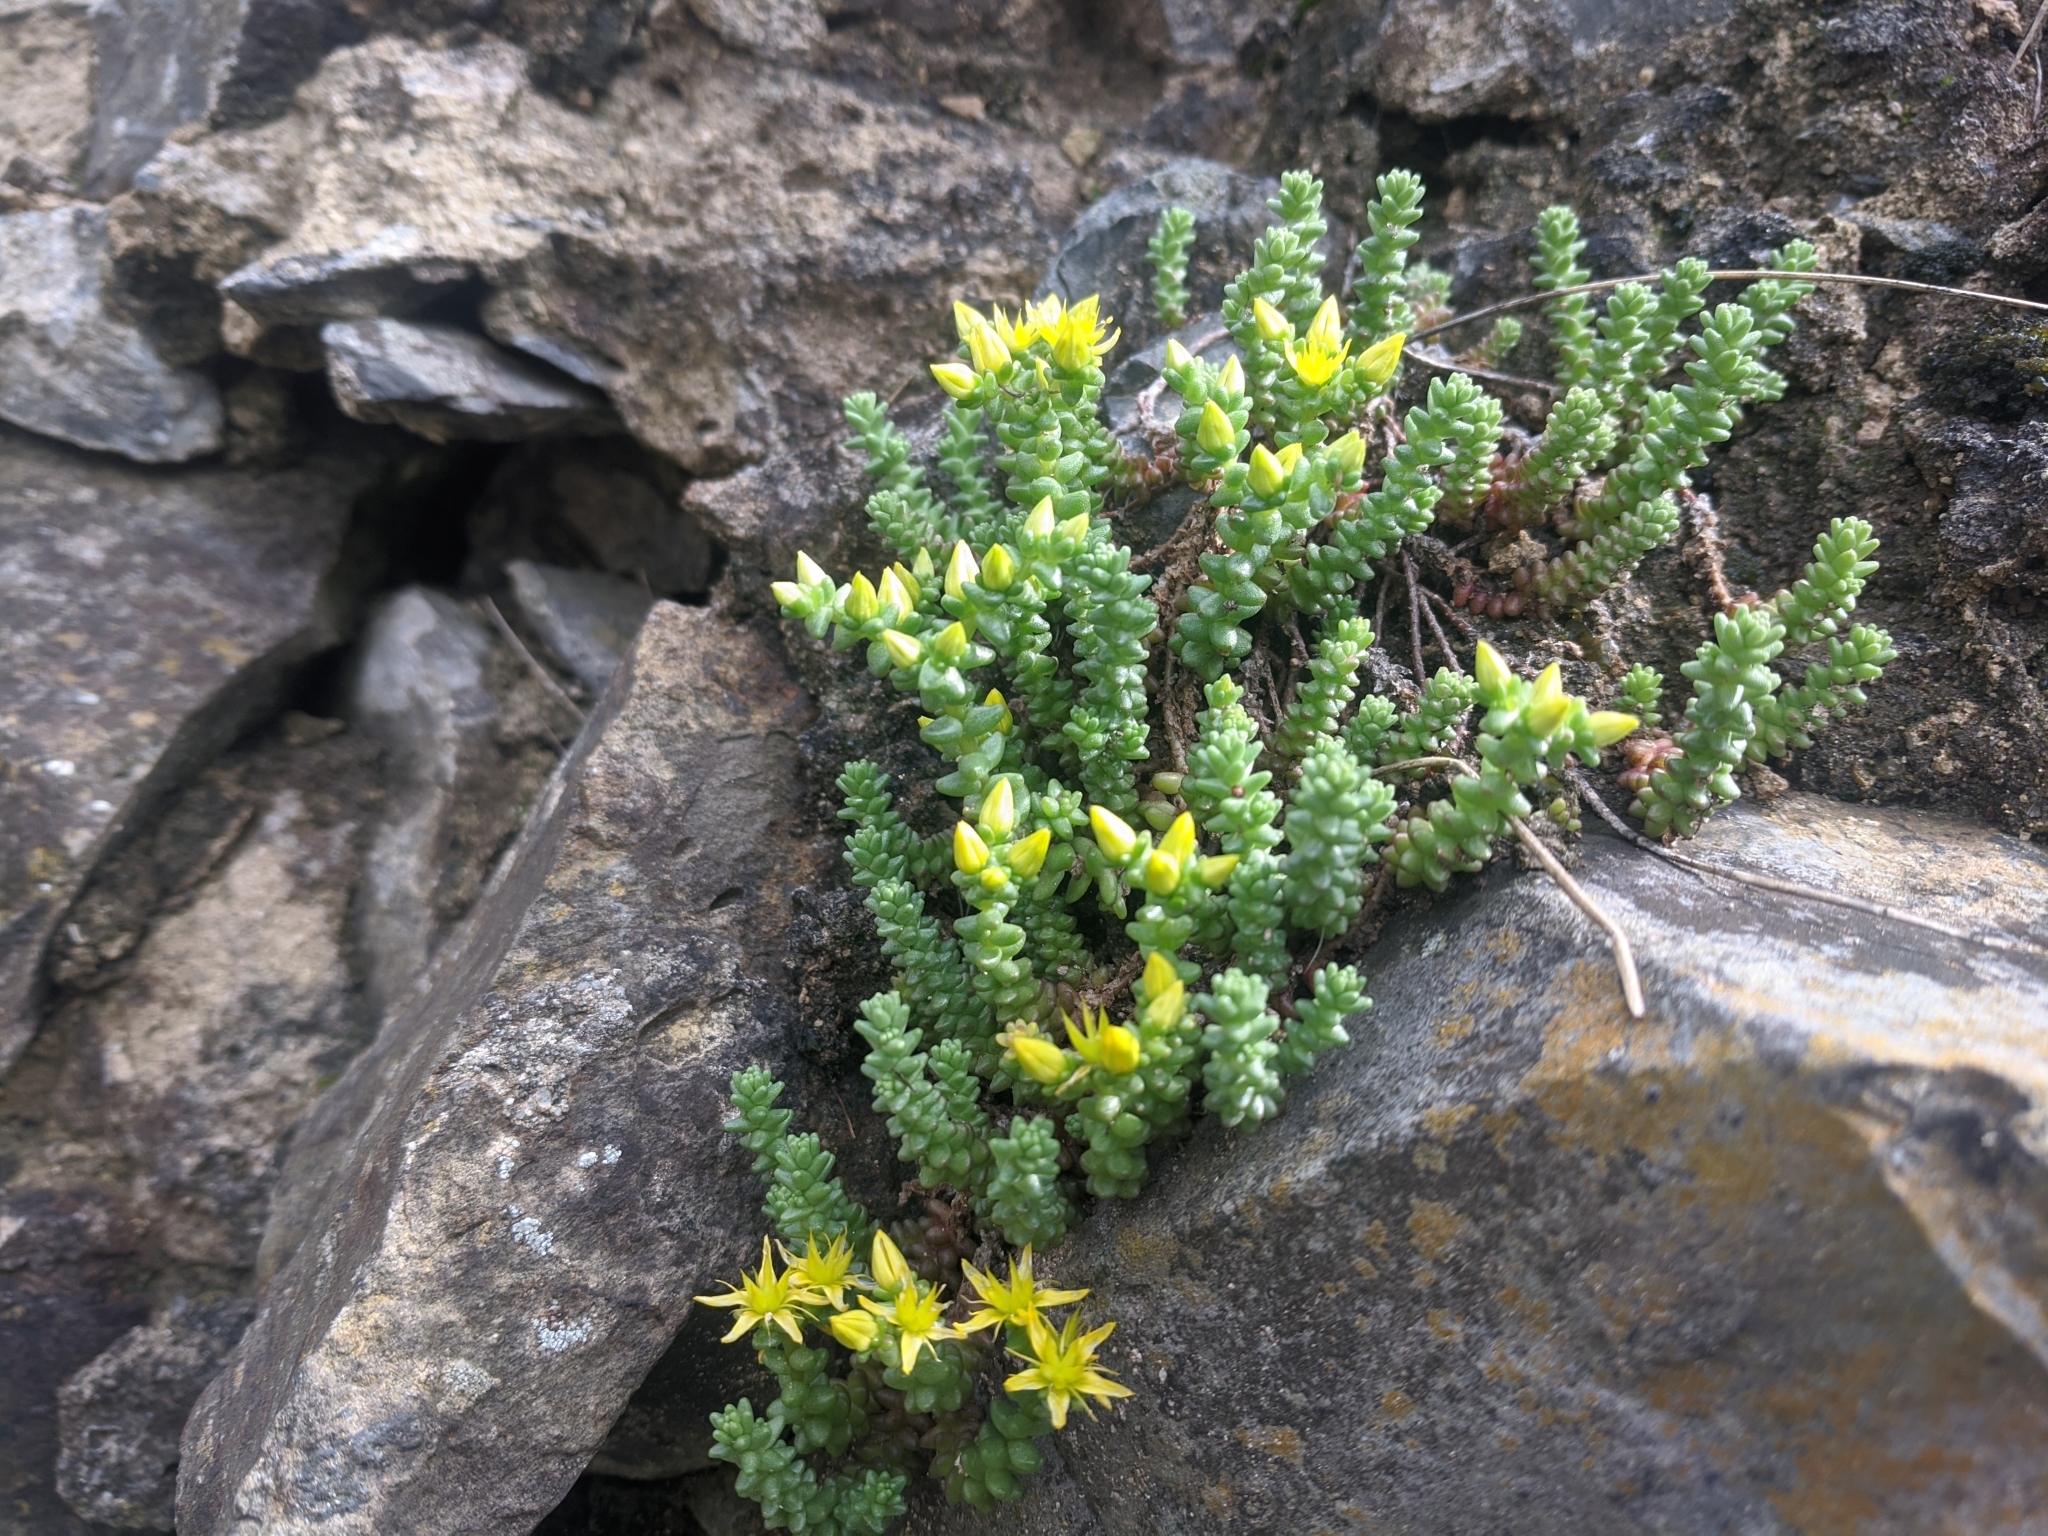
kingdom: Plantae
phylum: Tracheophyta
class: Magnoliopsida
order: Saxifragales
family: Crassulaceae
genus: Sedum
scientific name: Sedum acre
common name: Biting stonecrop
